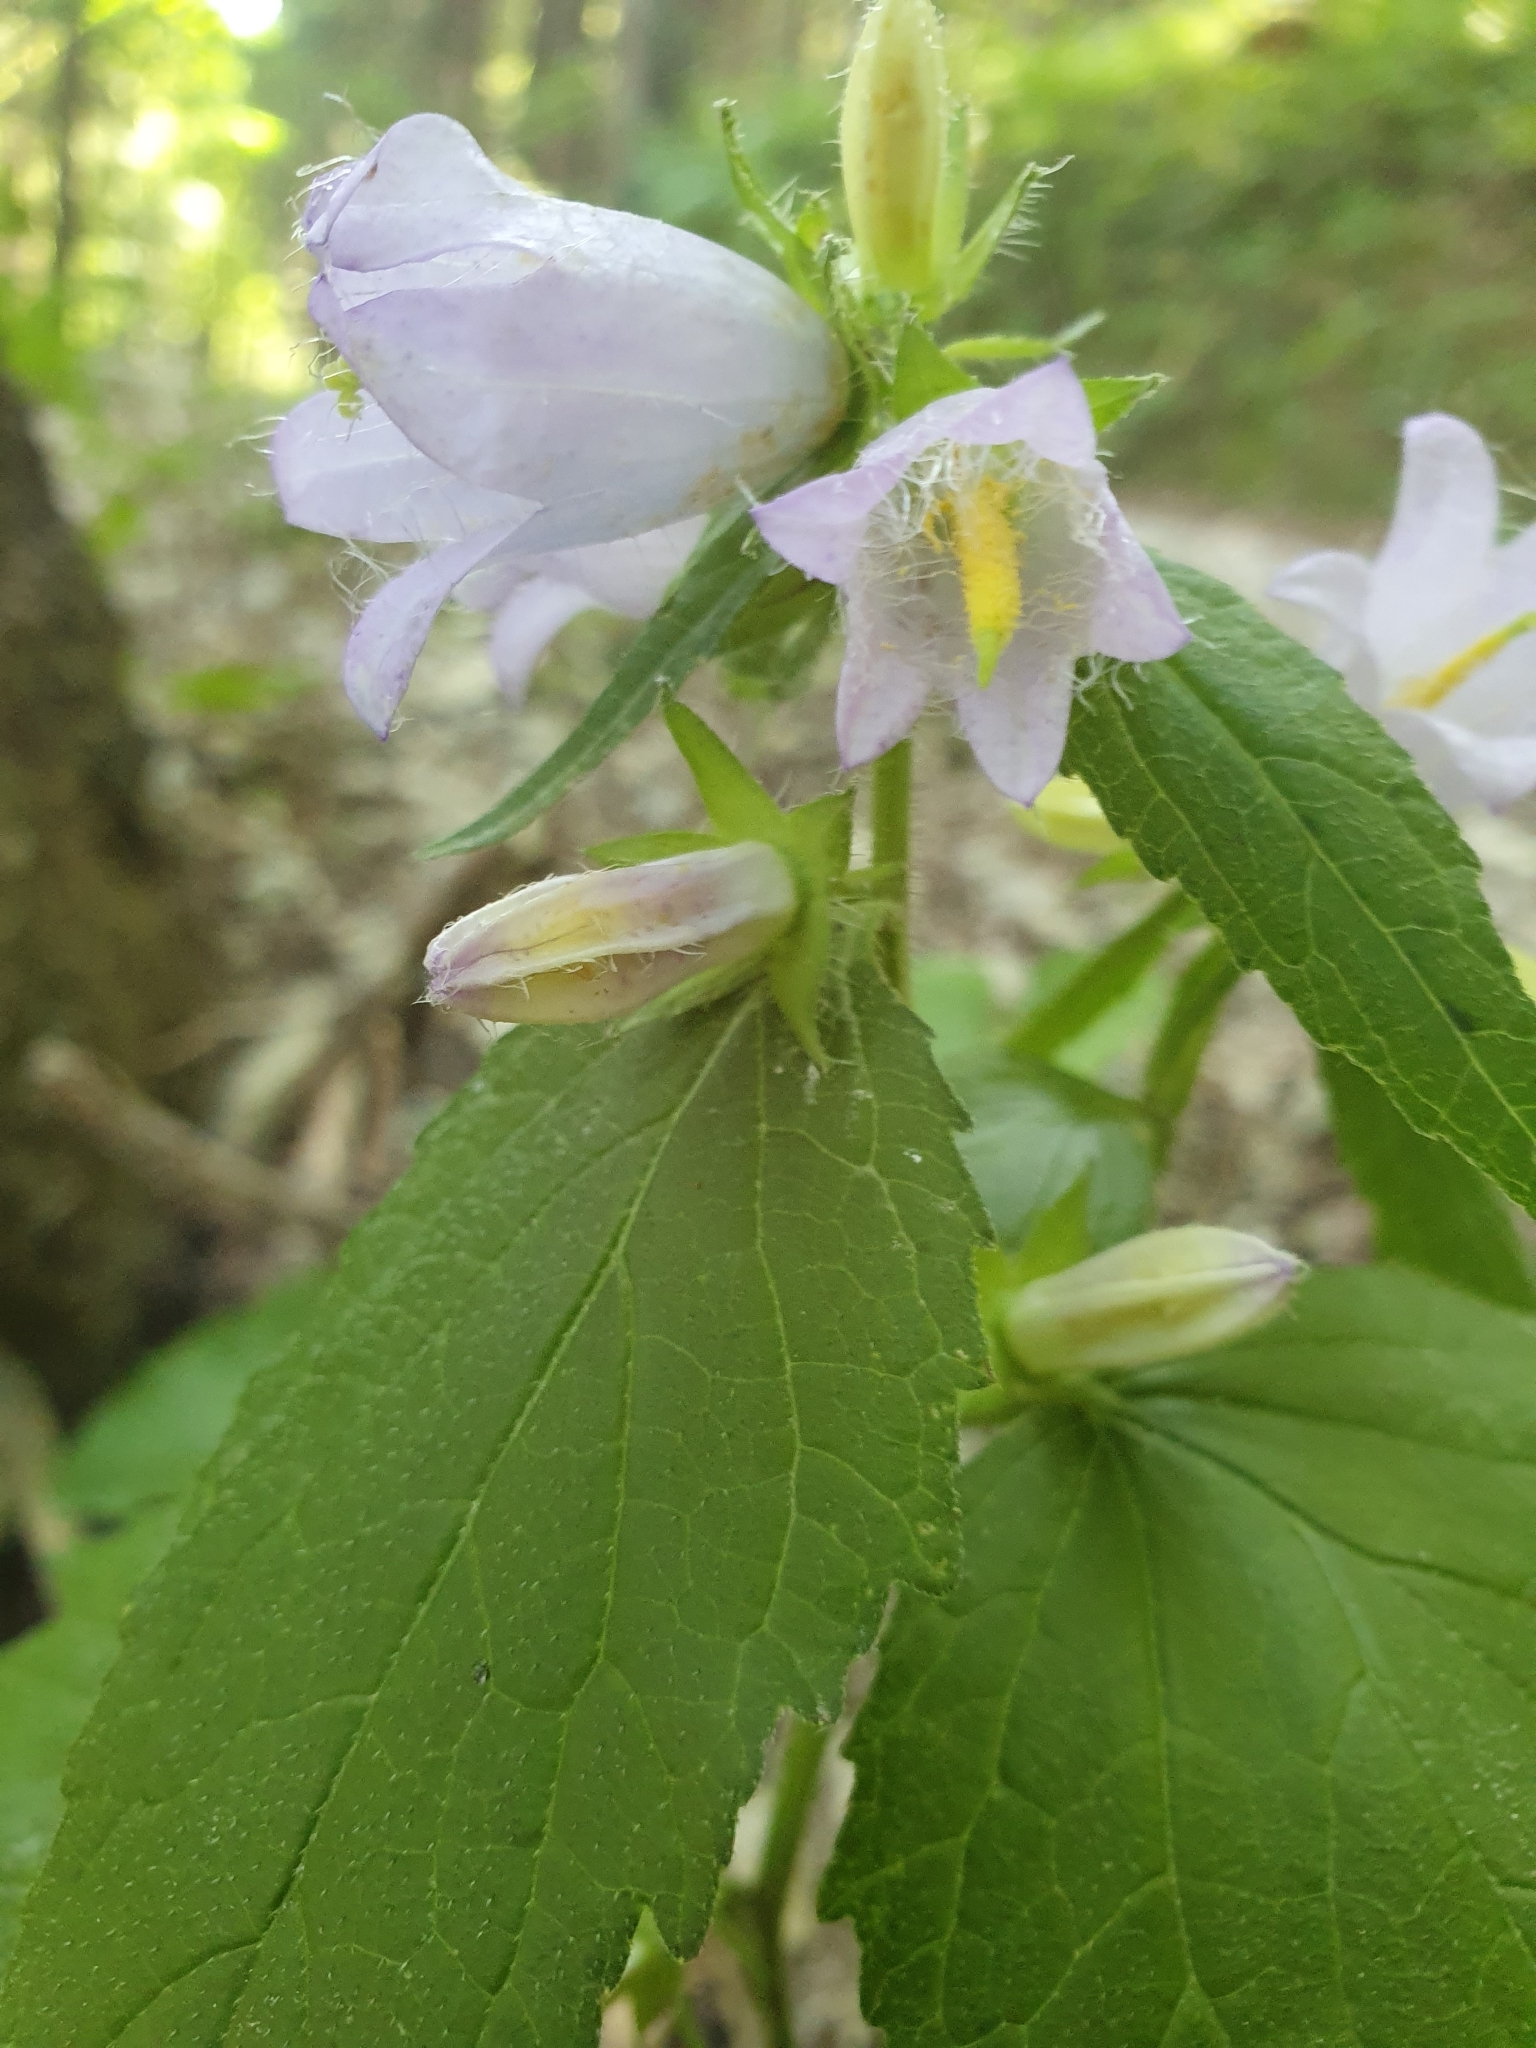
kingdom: Plantae
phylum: Tracheophyta
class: Magnoliopsida
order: Asterales
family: Campanulaceae
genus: Campanula
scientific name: Campanula trachelium
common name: Nettle-leaved bellflower
